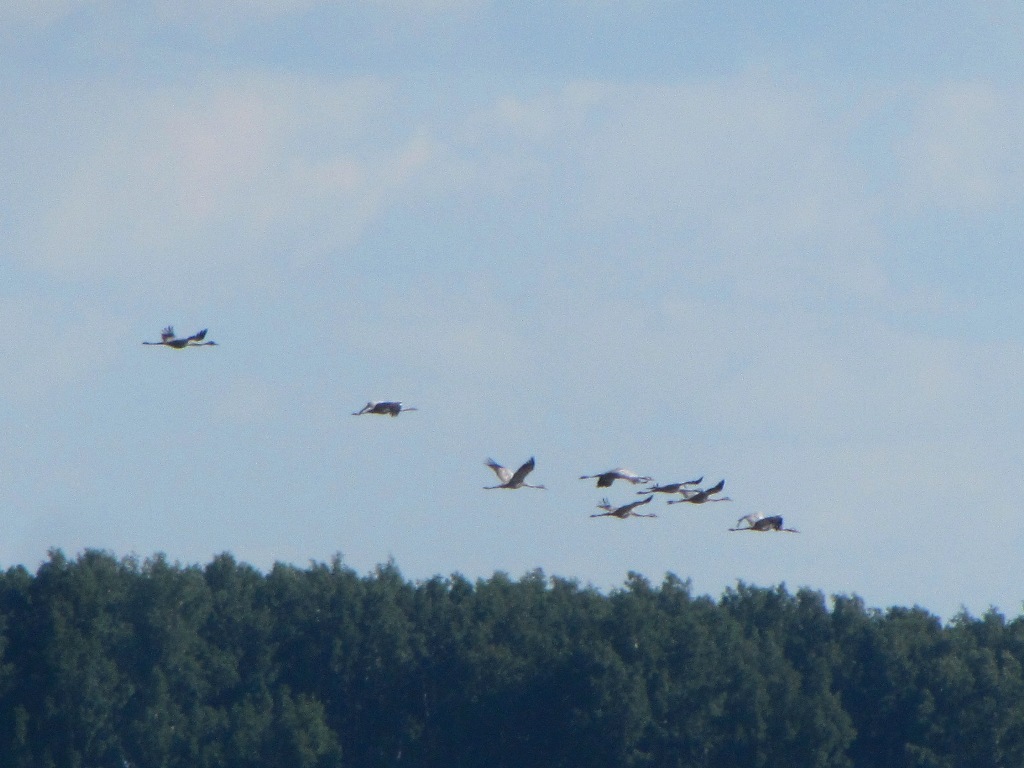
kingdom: Animalia
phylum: Chordata
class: Aves
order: Gruiformes
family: Gruidae
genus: Grus
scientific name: Grus grus
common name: Common crane
